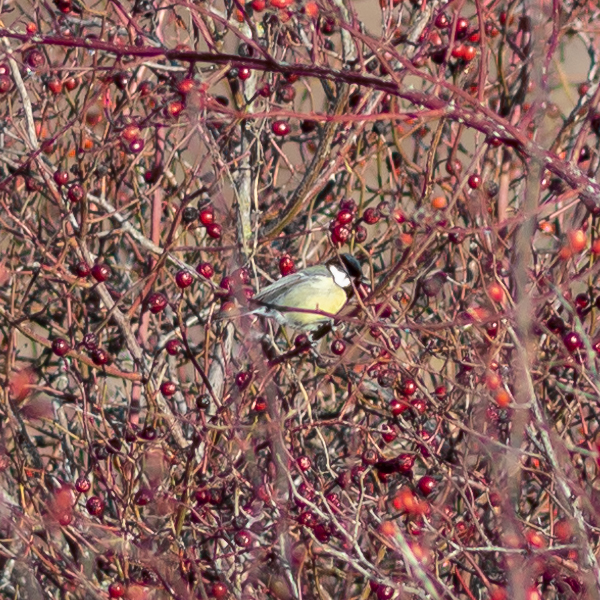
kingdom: Animalia
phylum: Chordata
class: Aves
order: Passeriformes
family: Paridae
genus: Parus
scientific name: Parus major
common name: Great tit
